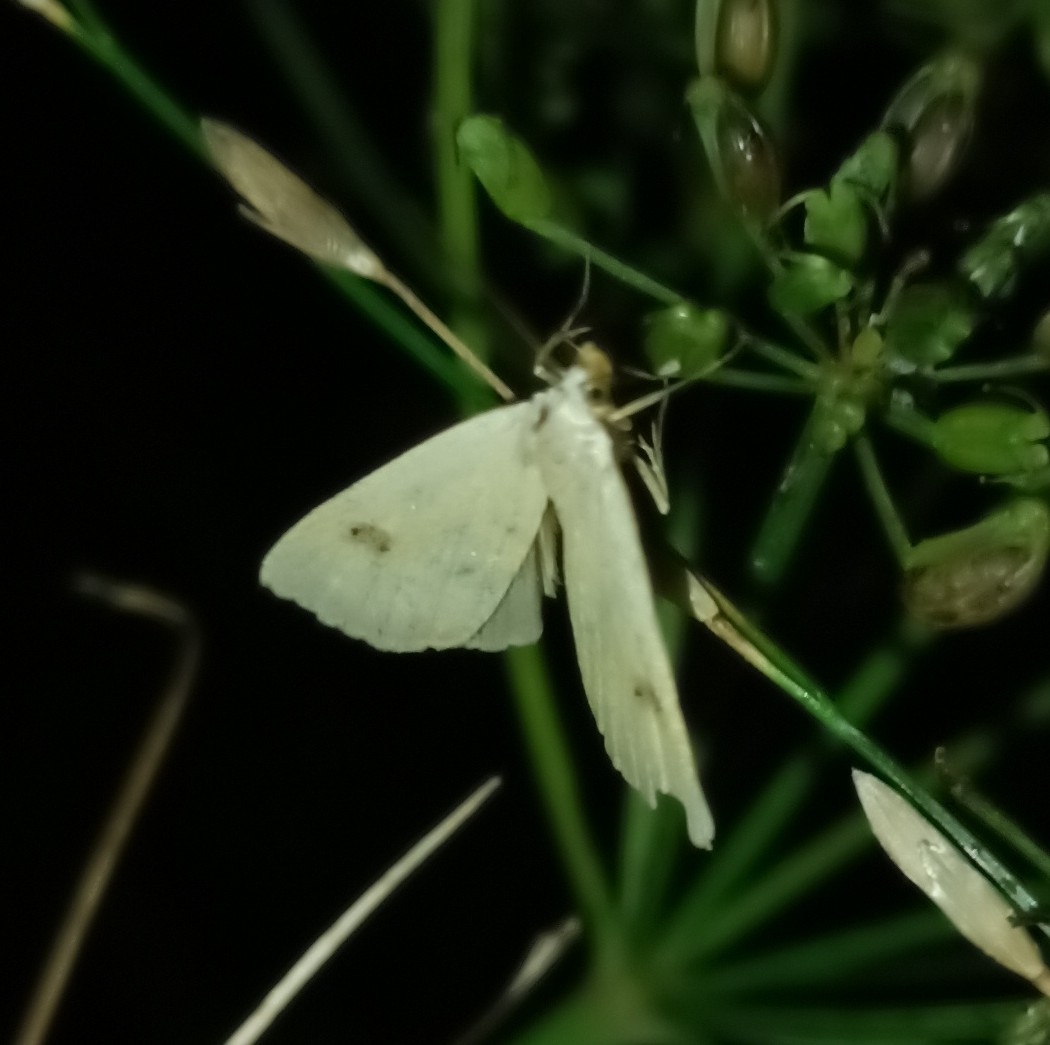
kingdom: Animalia
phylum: Arthropoda
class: Insecta
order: Lepidoptera
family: Erebidae
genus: Rivula
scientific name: Rivula sericealis
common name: Straw dot
